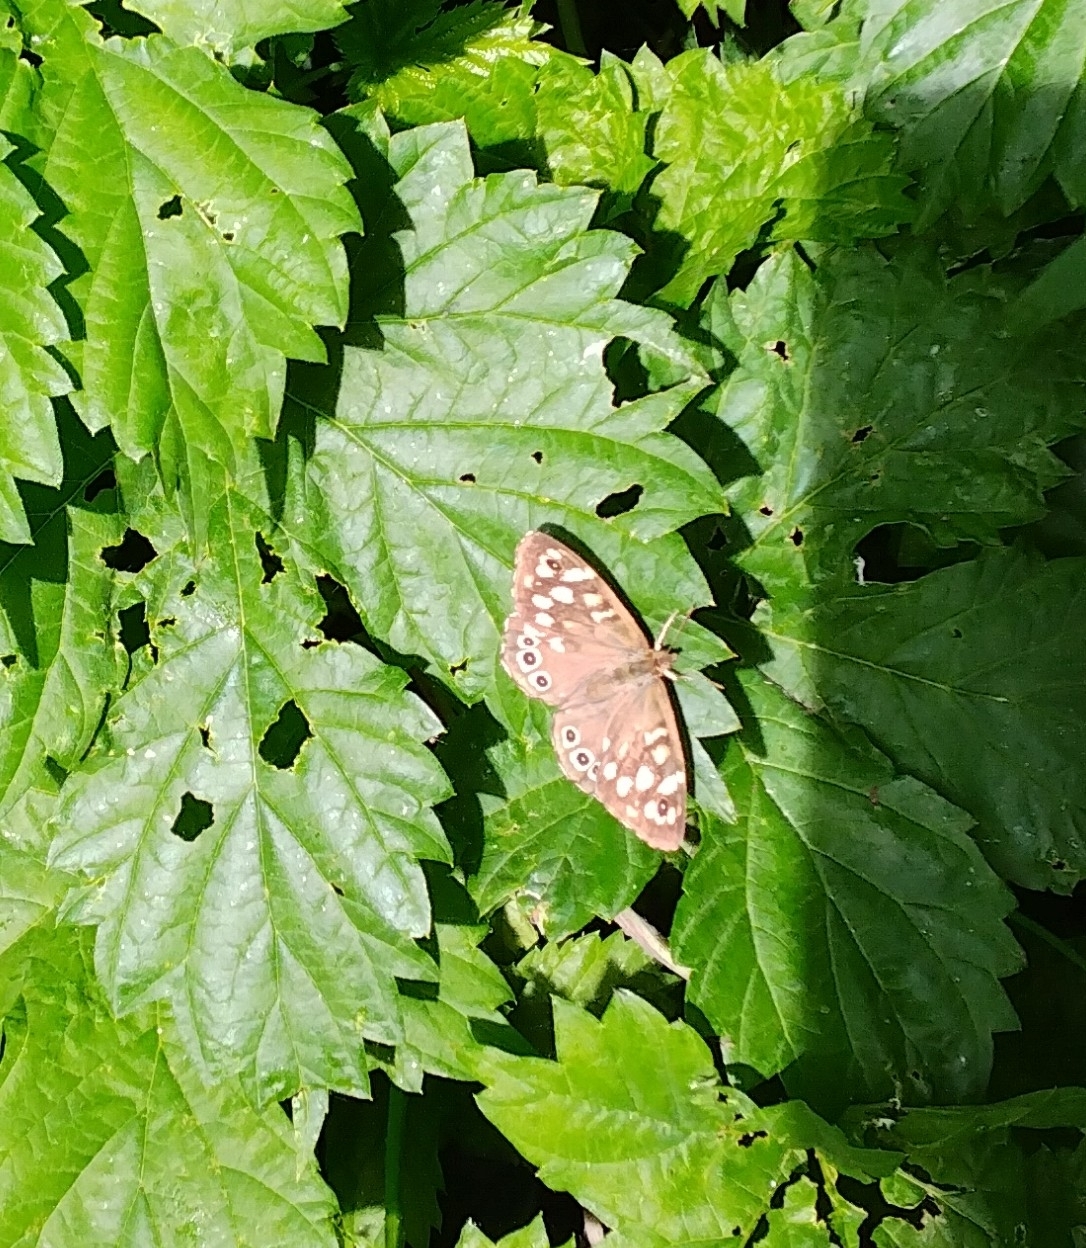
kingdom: Animalia
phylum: Arthropoda
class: Insecta
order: Lepidoptera
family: Nymphalidae
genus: Pararge
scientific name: Pararge aegeria
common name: Speckled wood
